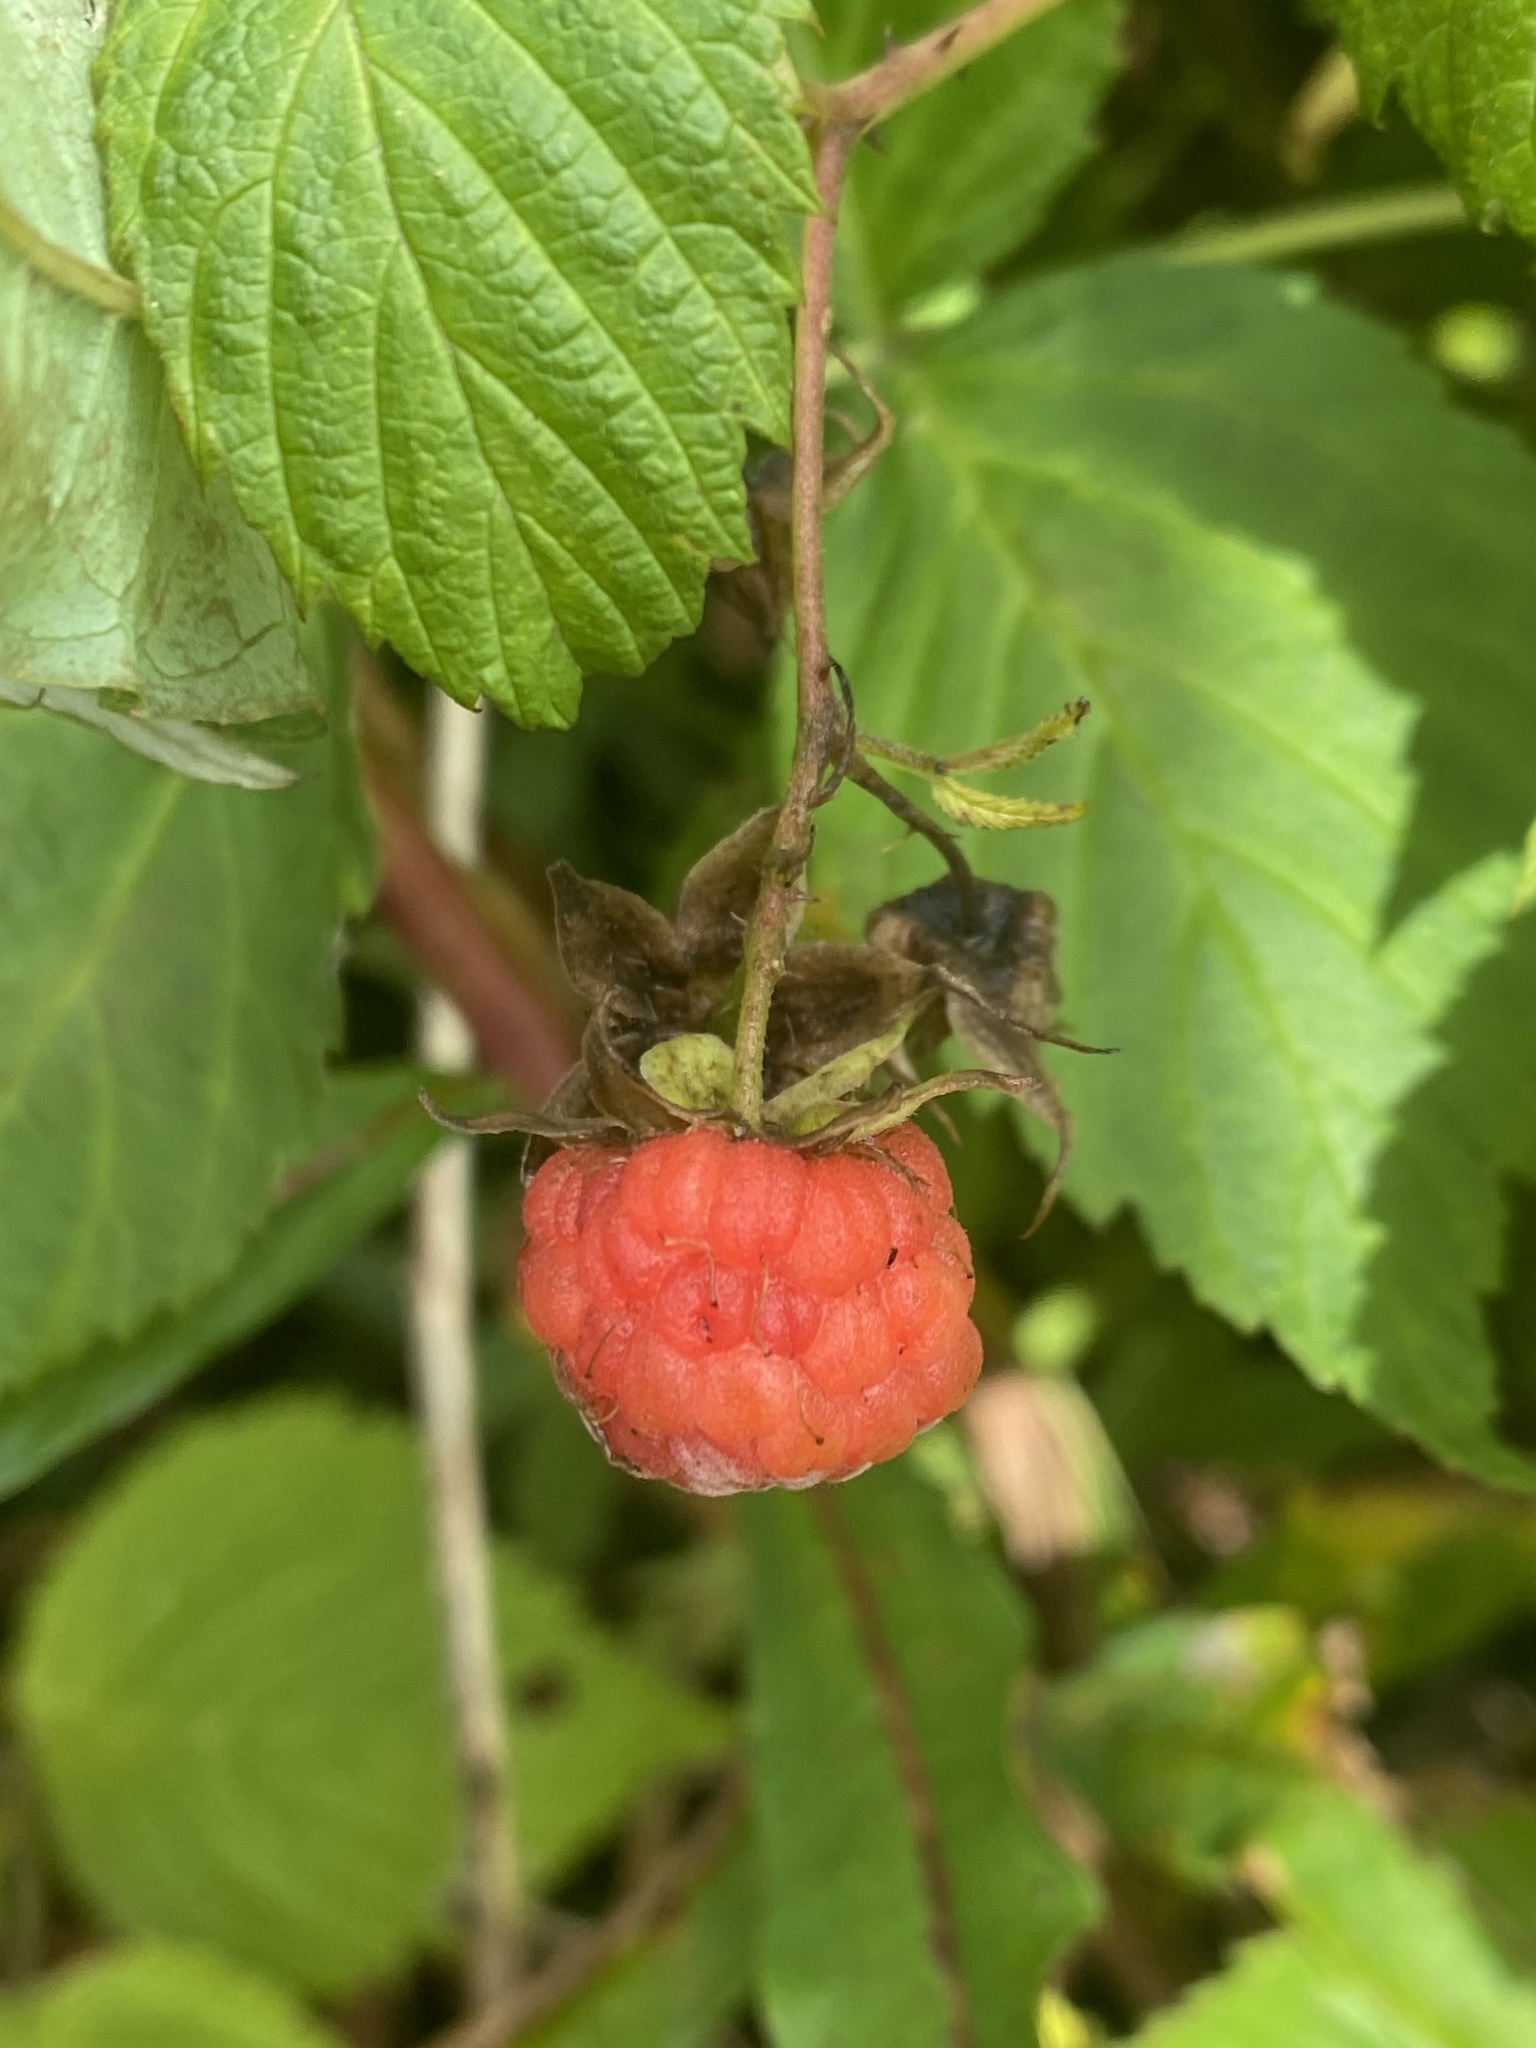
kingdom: Plantae
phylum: Tracheophyta
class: Magnoliopsida
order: Rosales
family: Rosaceae
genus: Rubus
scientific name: Rubus idaeus
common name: Raspberry
